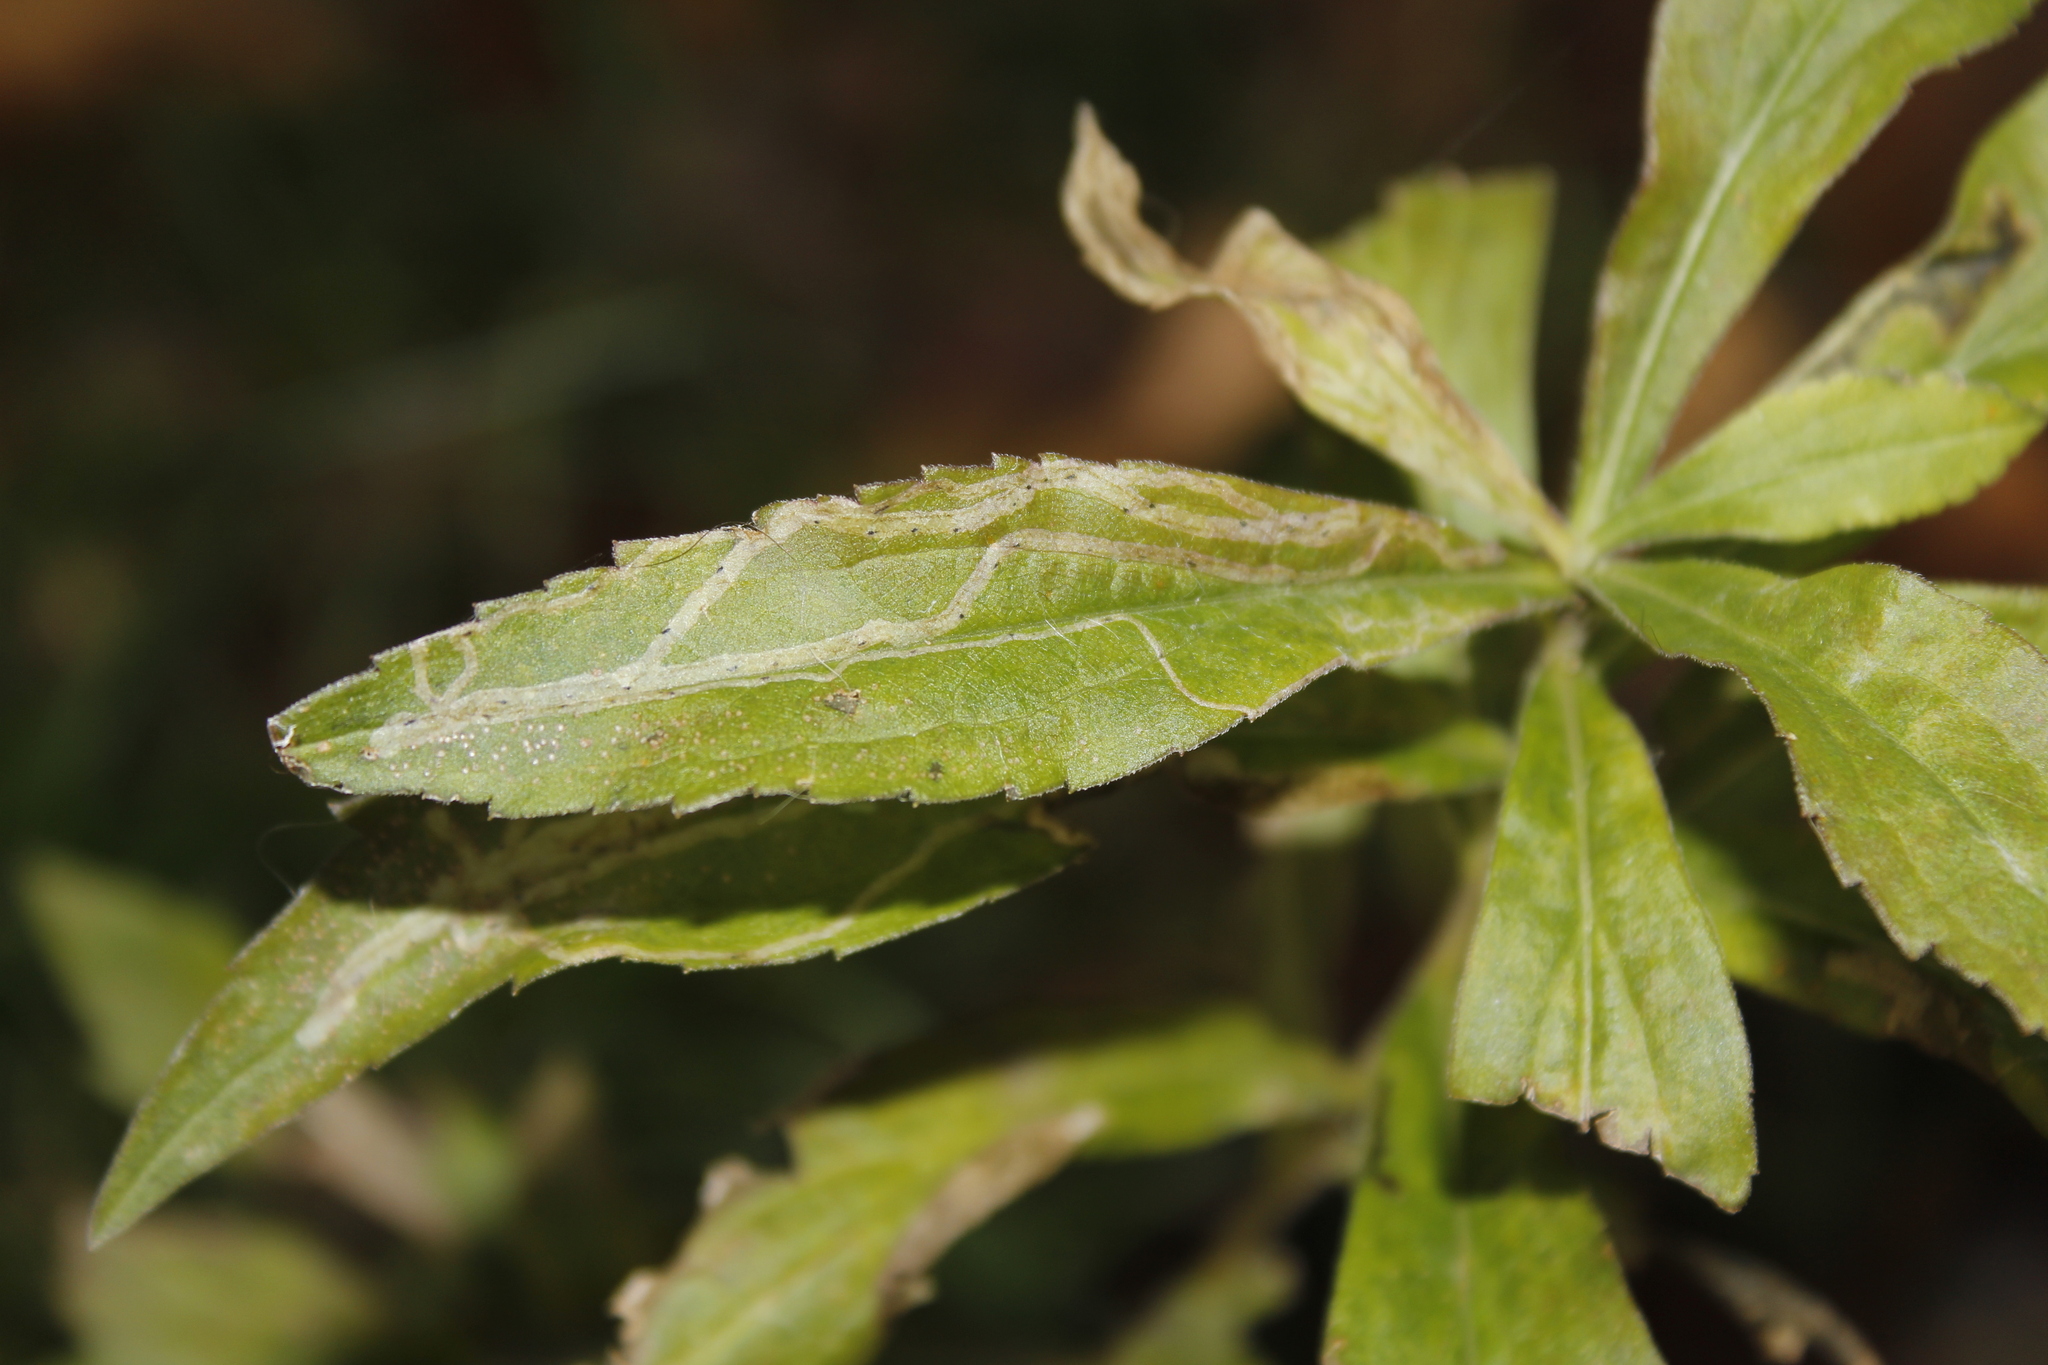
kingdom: Animalia
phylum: Arthropoda
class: Insecta
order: Diptera
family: Agromyzidae
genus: Ophiomyia
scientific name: Ophiomyia maura
